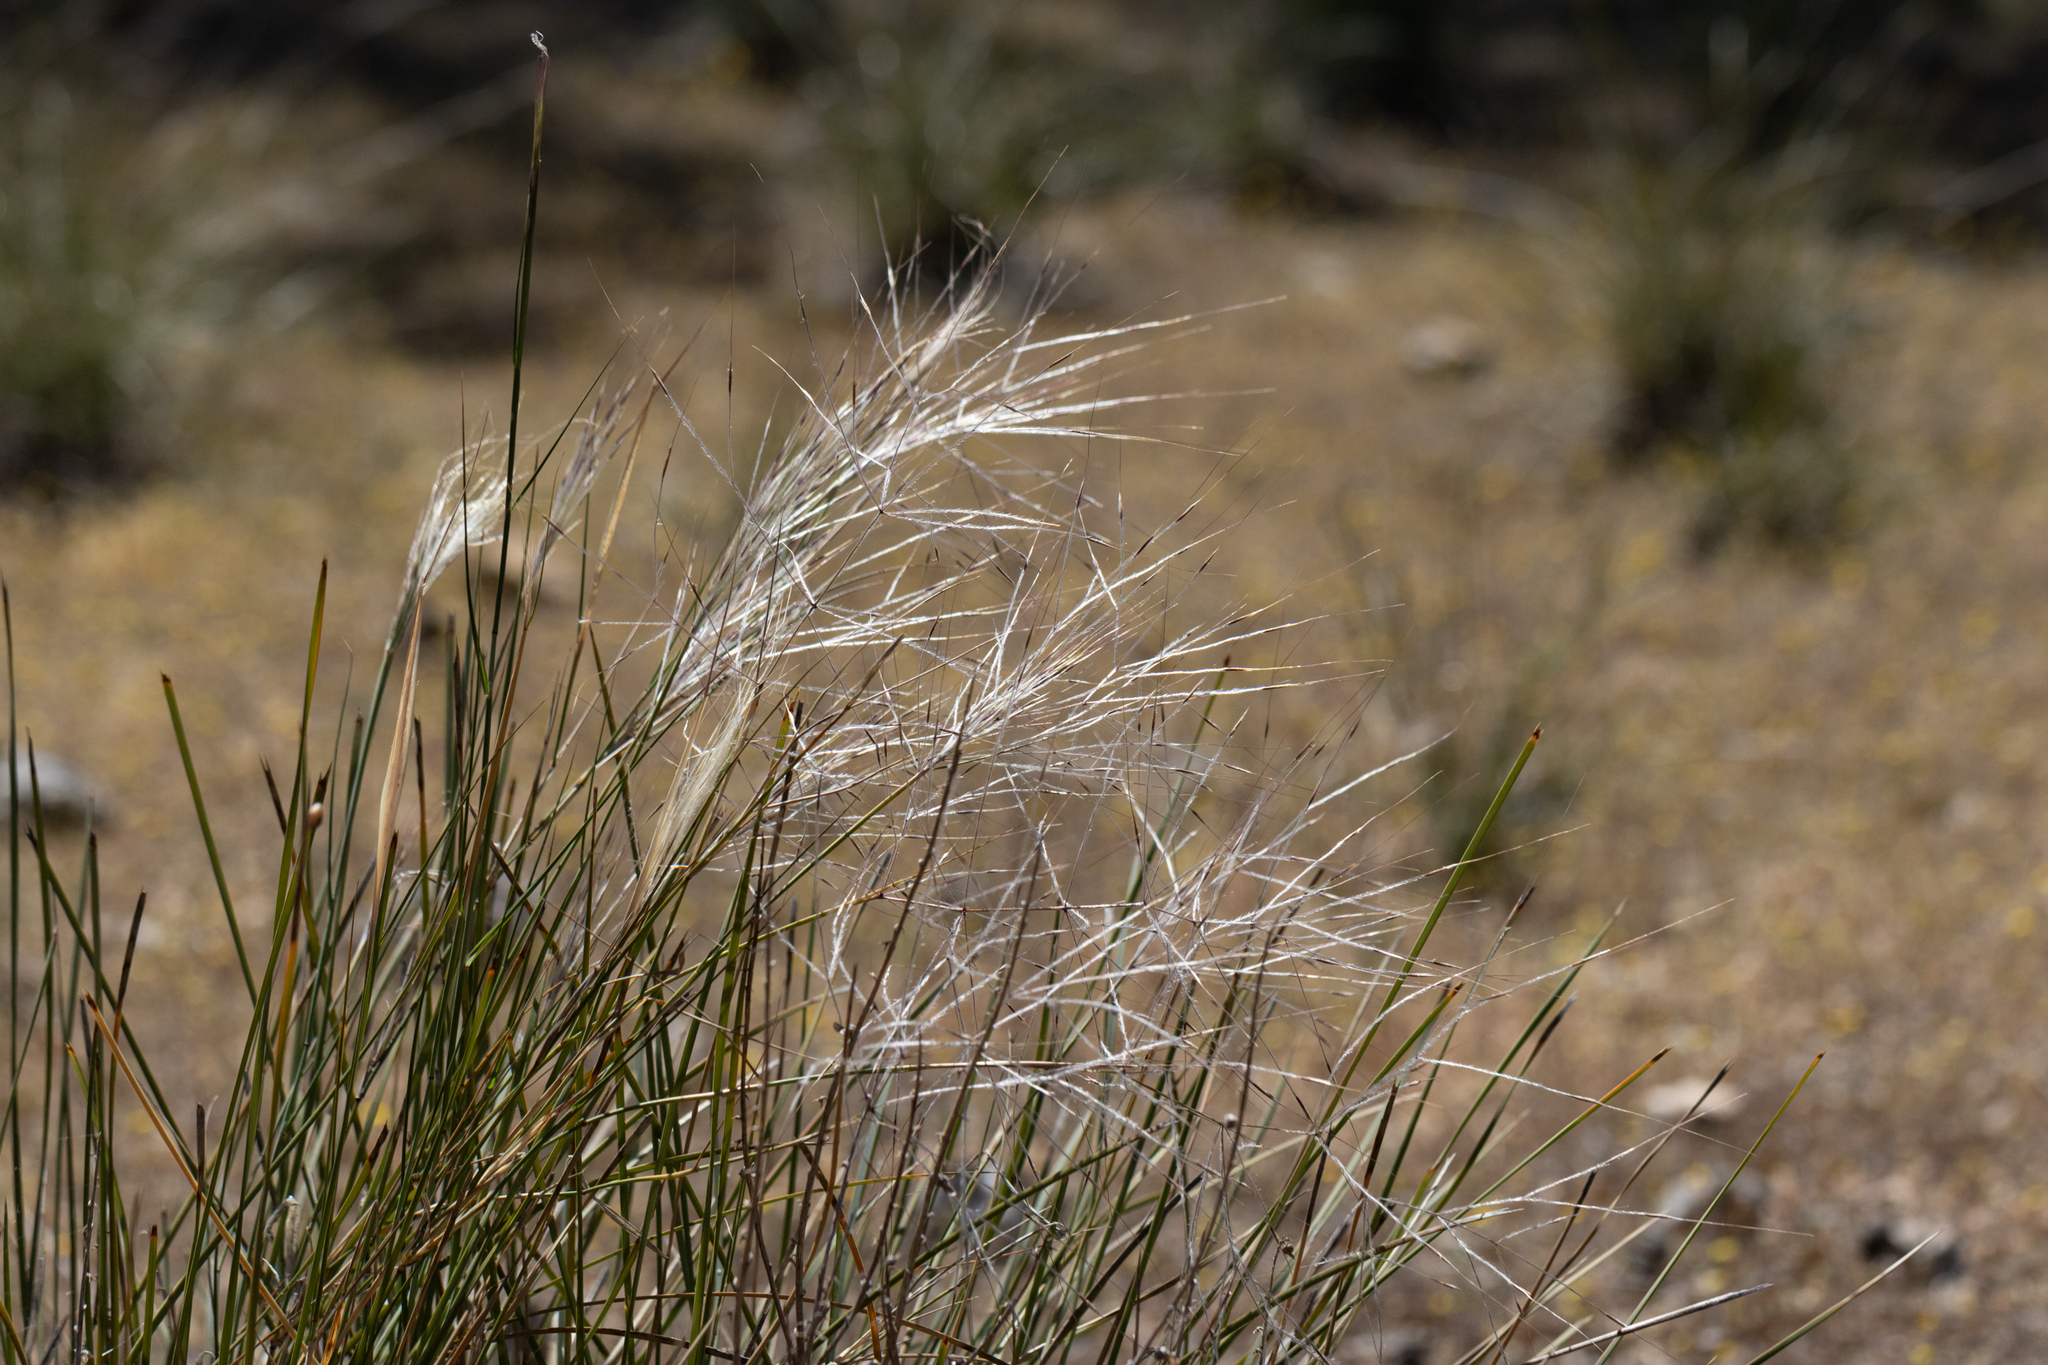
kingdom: Plantae
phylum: Tracheophyta
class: Liliopsida
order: Poales
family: Poaceae
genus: Austrostipa
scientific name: Austrostipa elegantissima
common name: Feather spear grass
